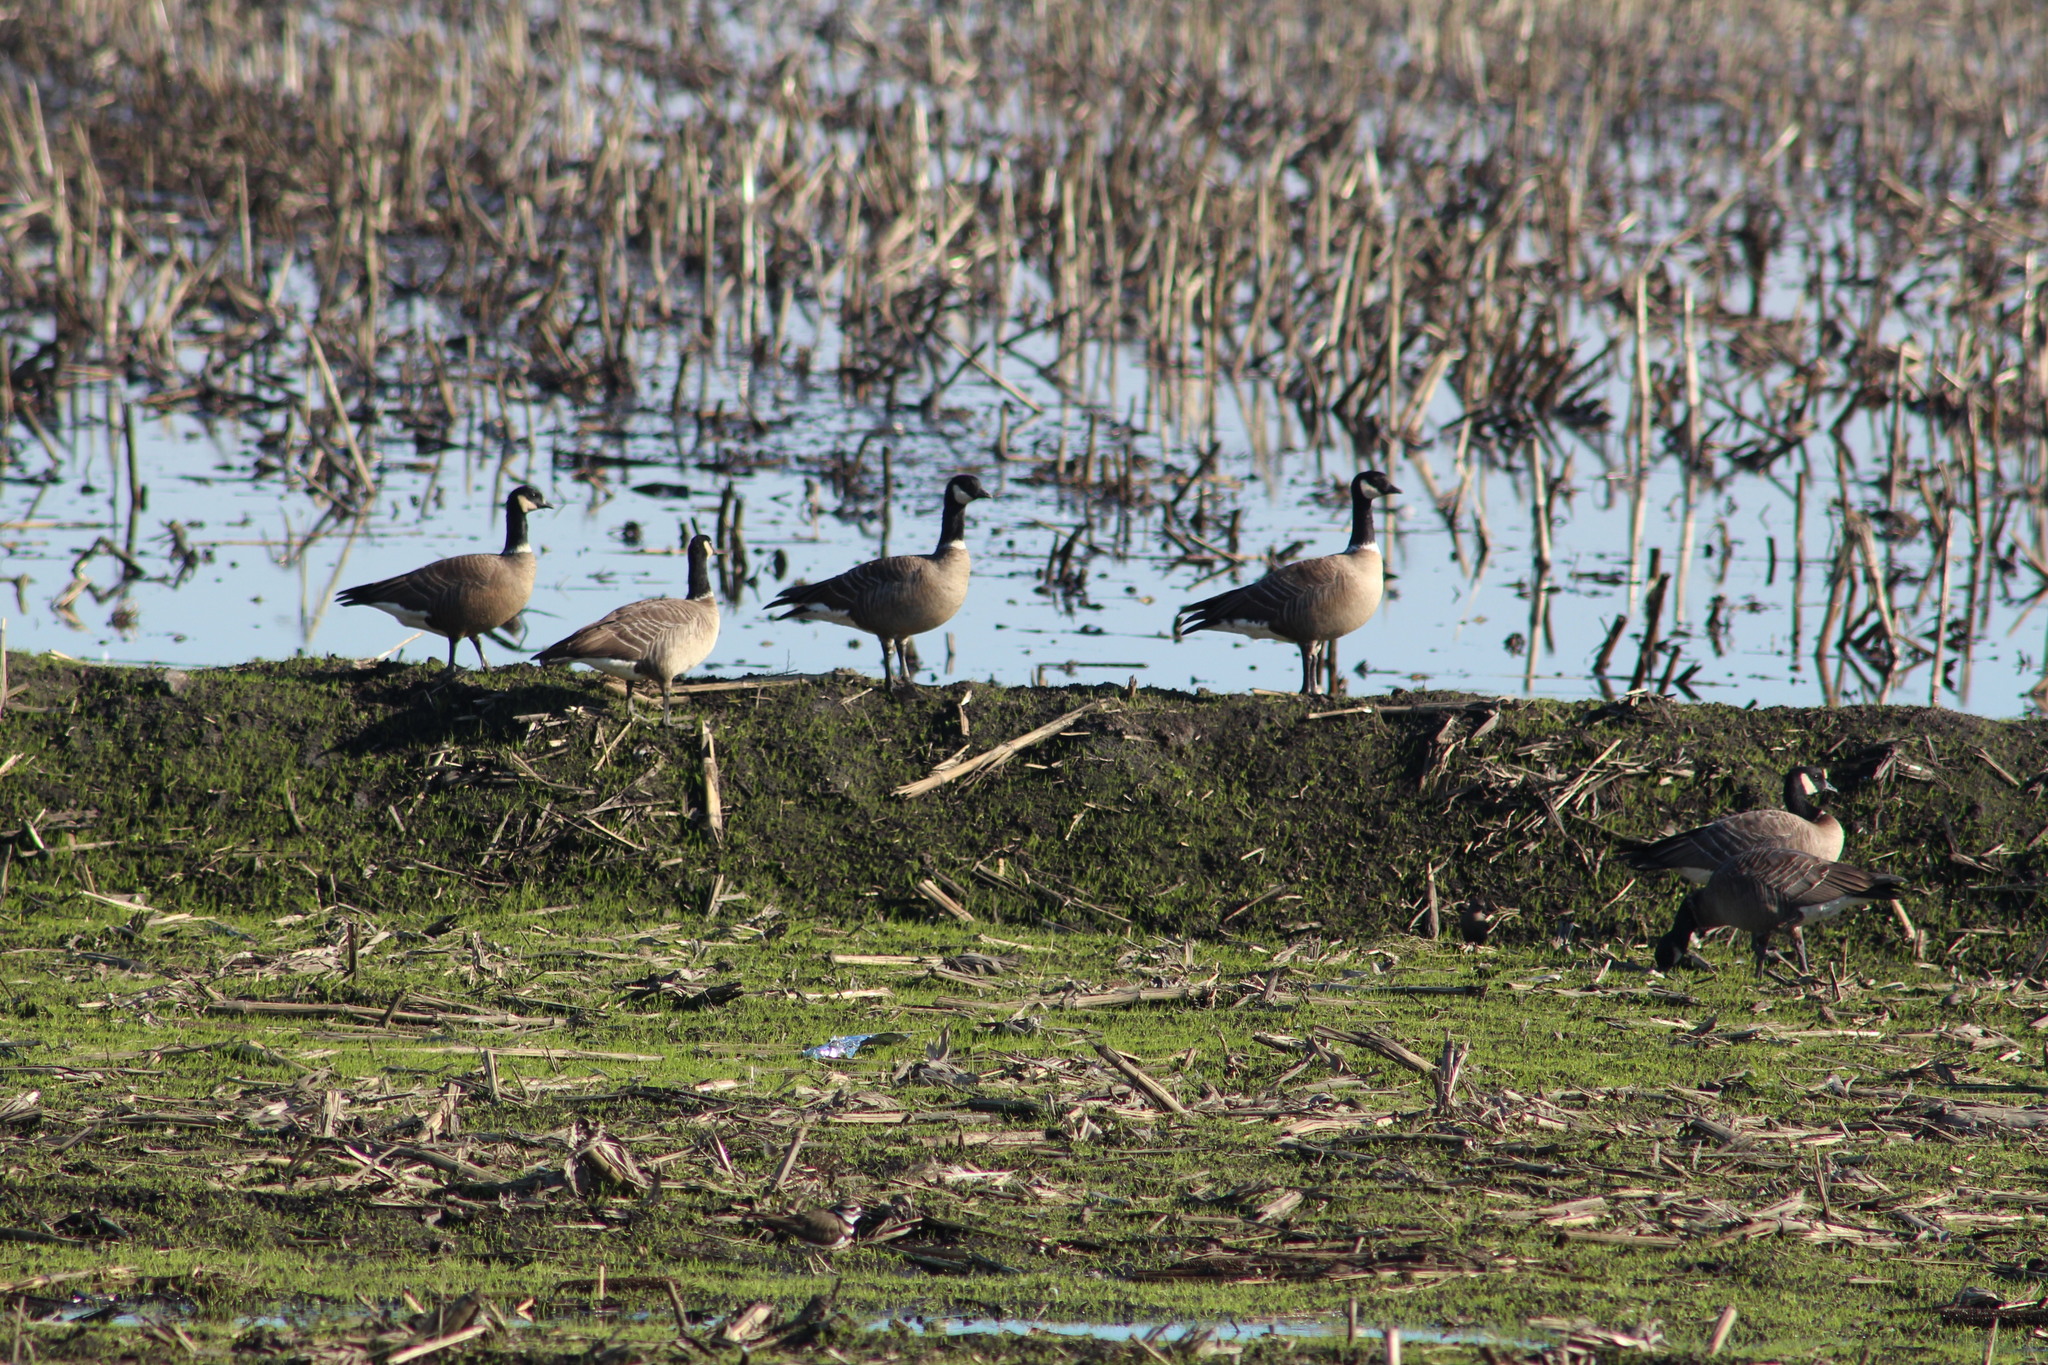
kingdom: Animalia
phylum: Chordata
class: Aves
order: Anseriformes
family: Anatidae
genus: Branta
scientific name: Branta hutchinsii
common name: Cackling goose
